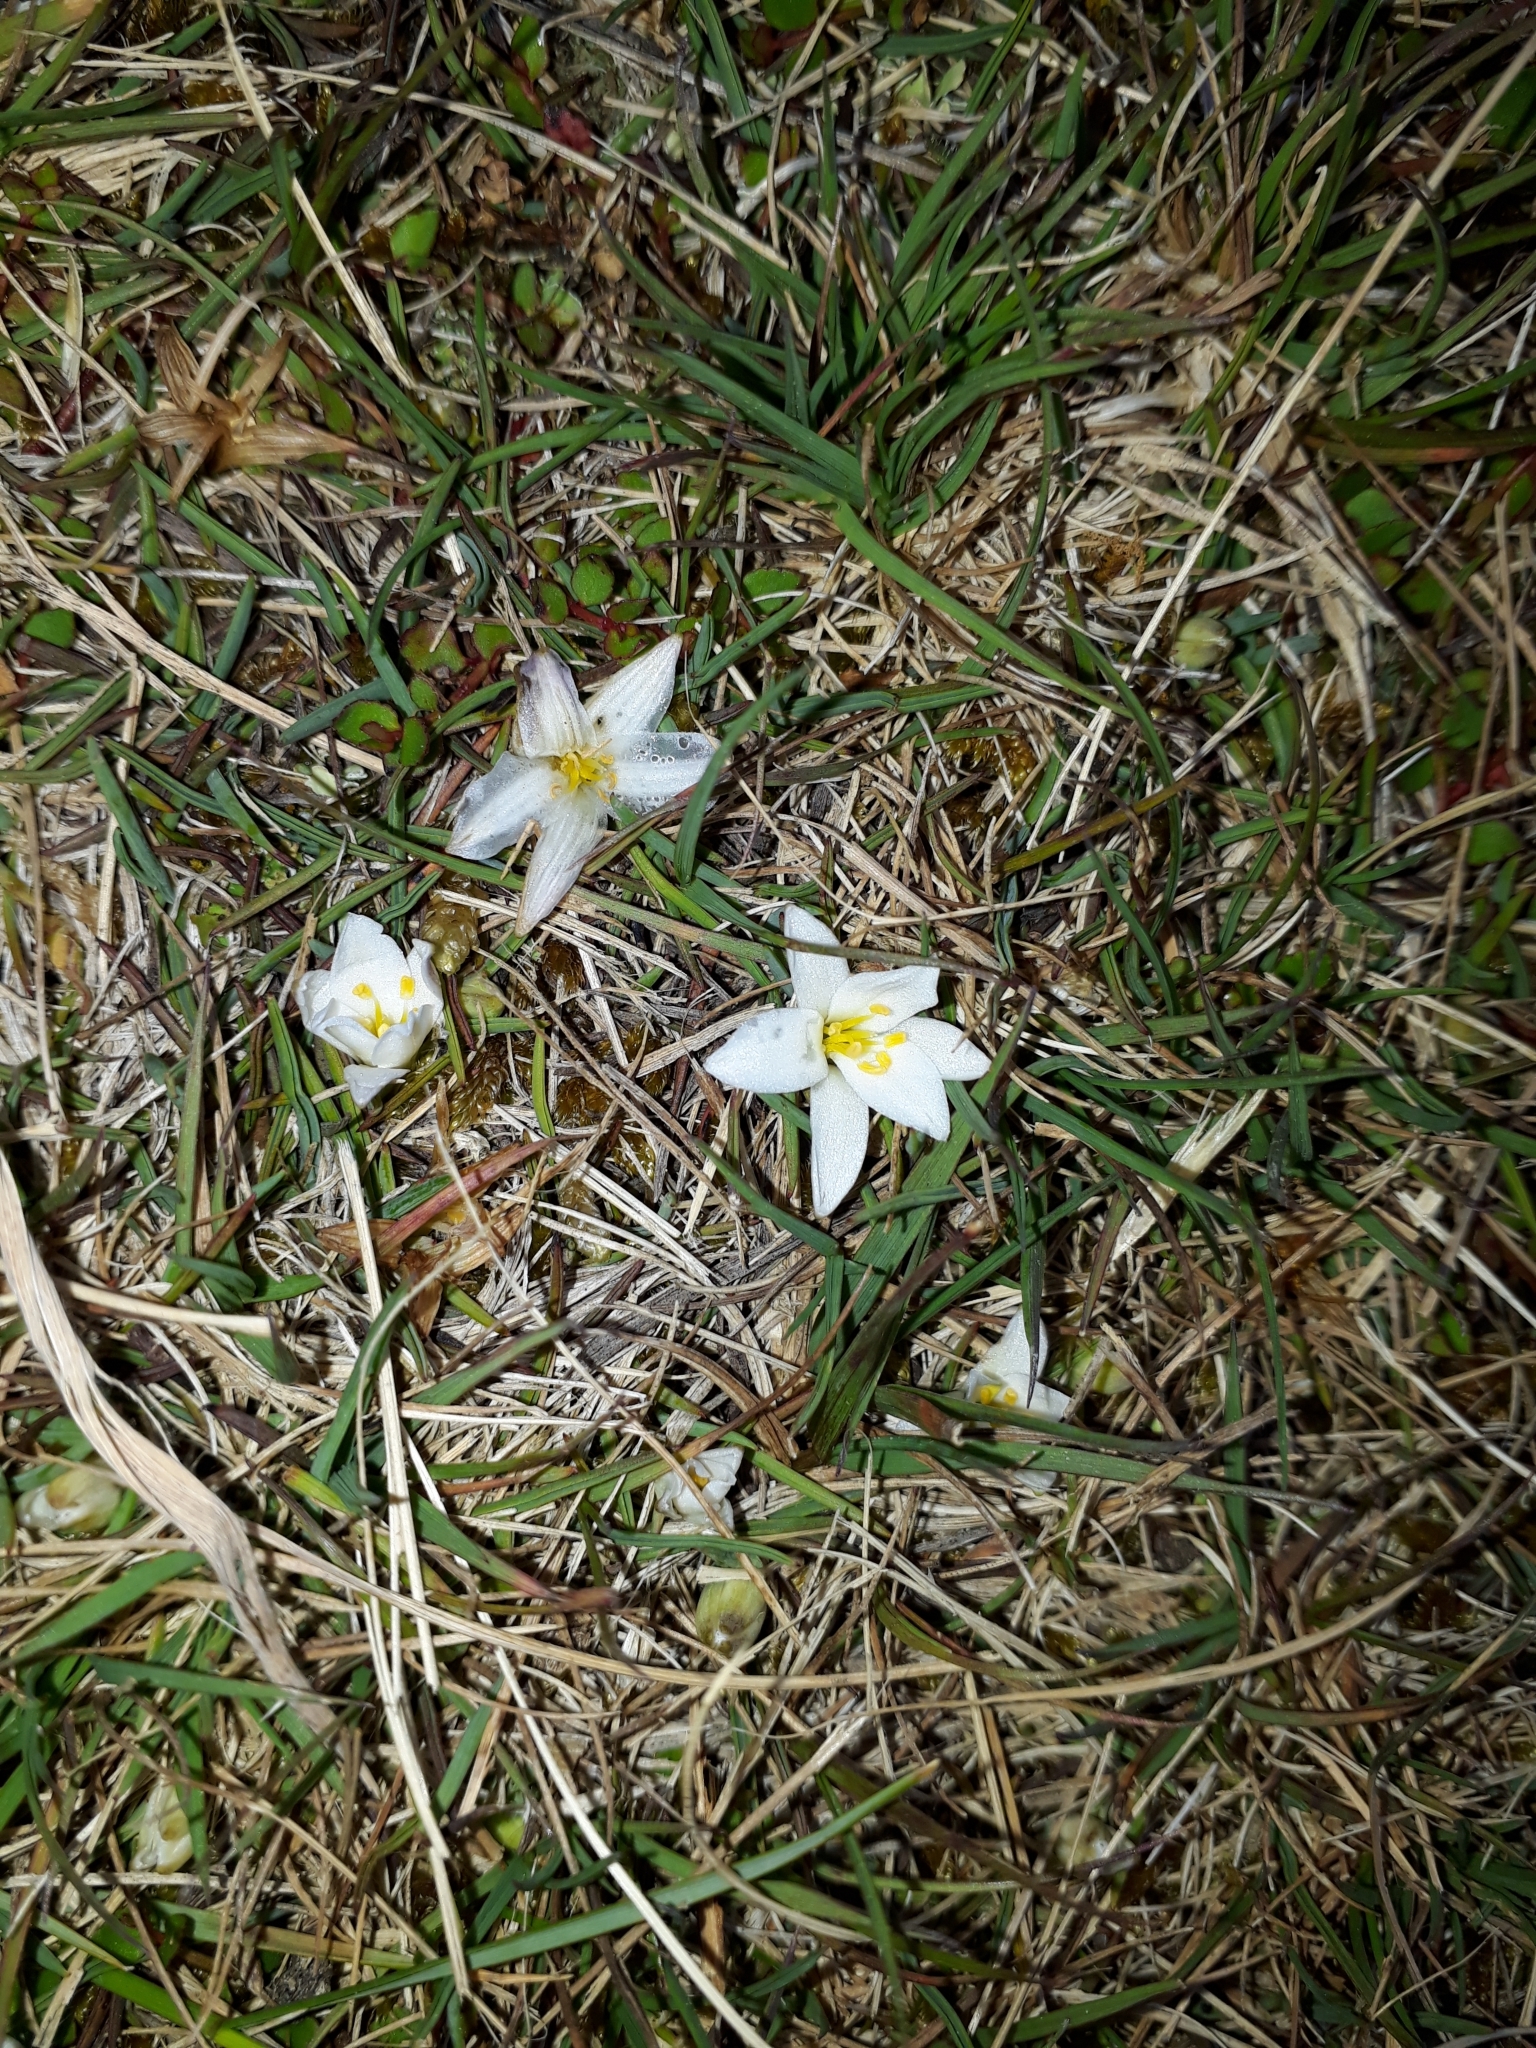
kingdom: Plantae
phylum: Tracheophyta
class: Liliopsida
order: Asparagales
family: Asphodelaceae
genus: Herpolirion
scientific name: Herpolirion novae-zelandiae
